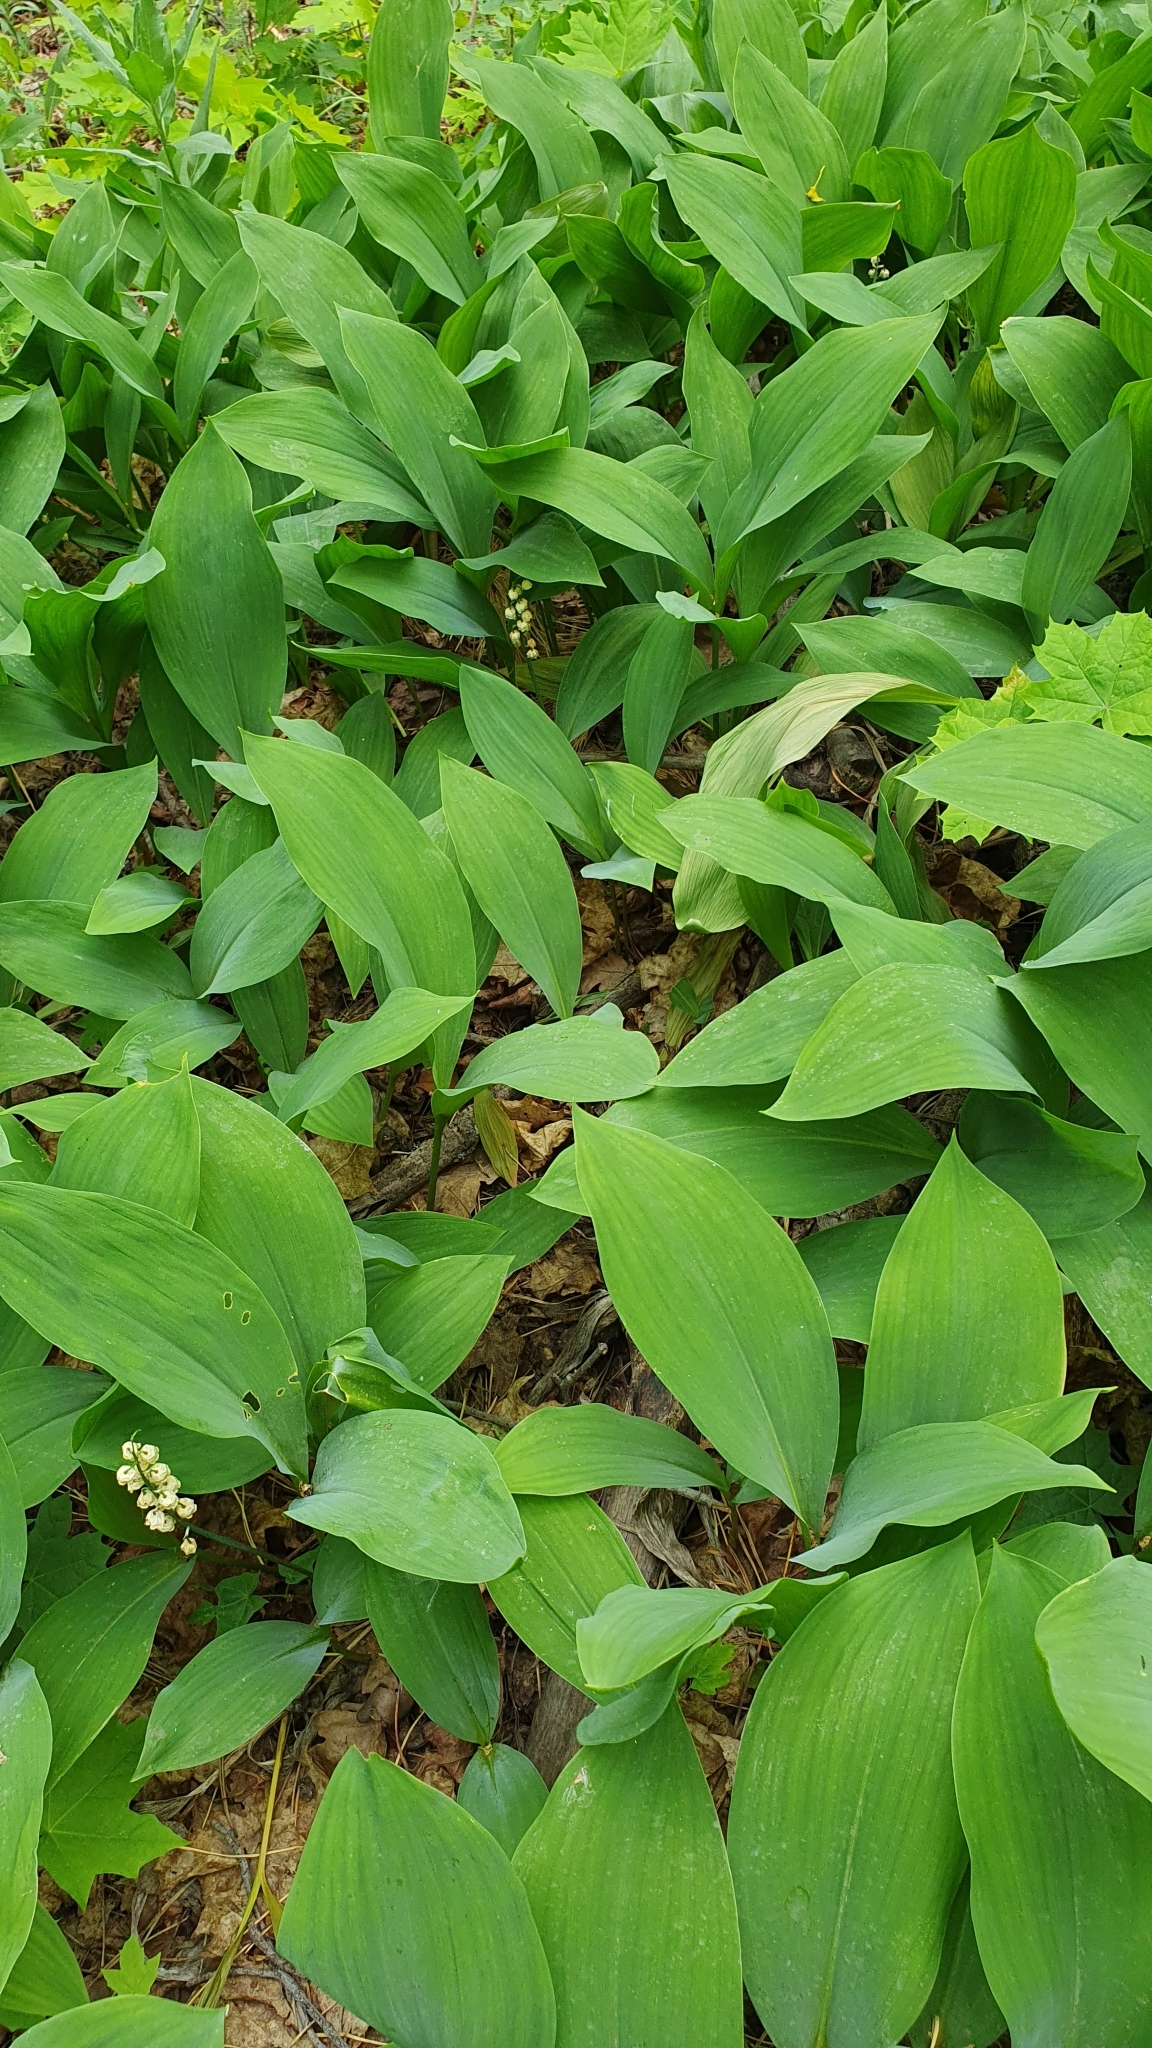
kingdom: Plantae
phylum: Tracheophyta
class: Liliopsida
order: Asparagales
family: Asparagaceae
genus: Convallaria
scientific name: Convallaria majalis
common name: Lily-of-the-valley
